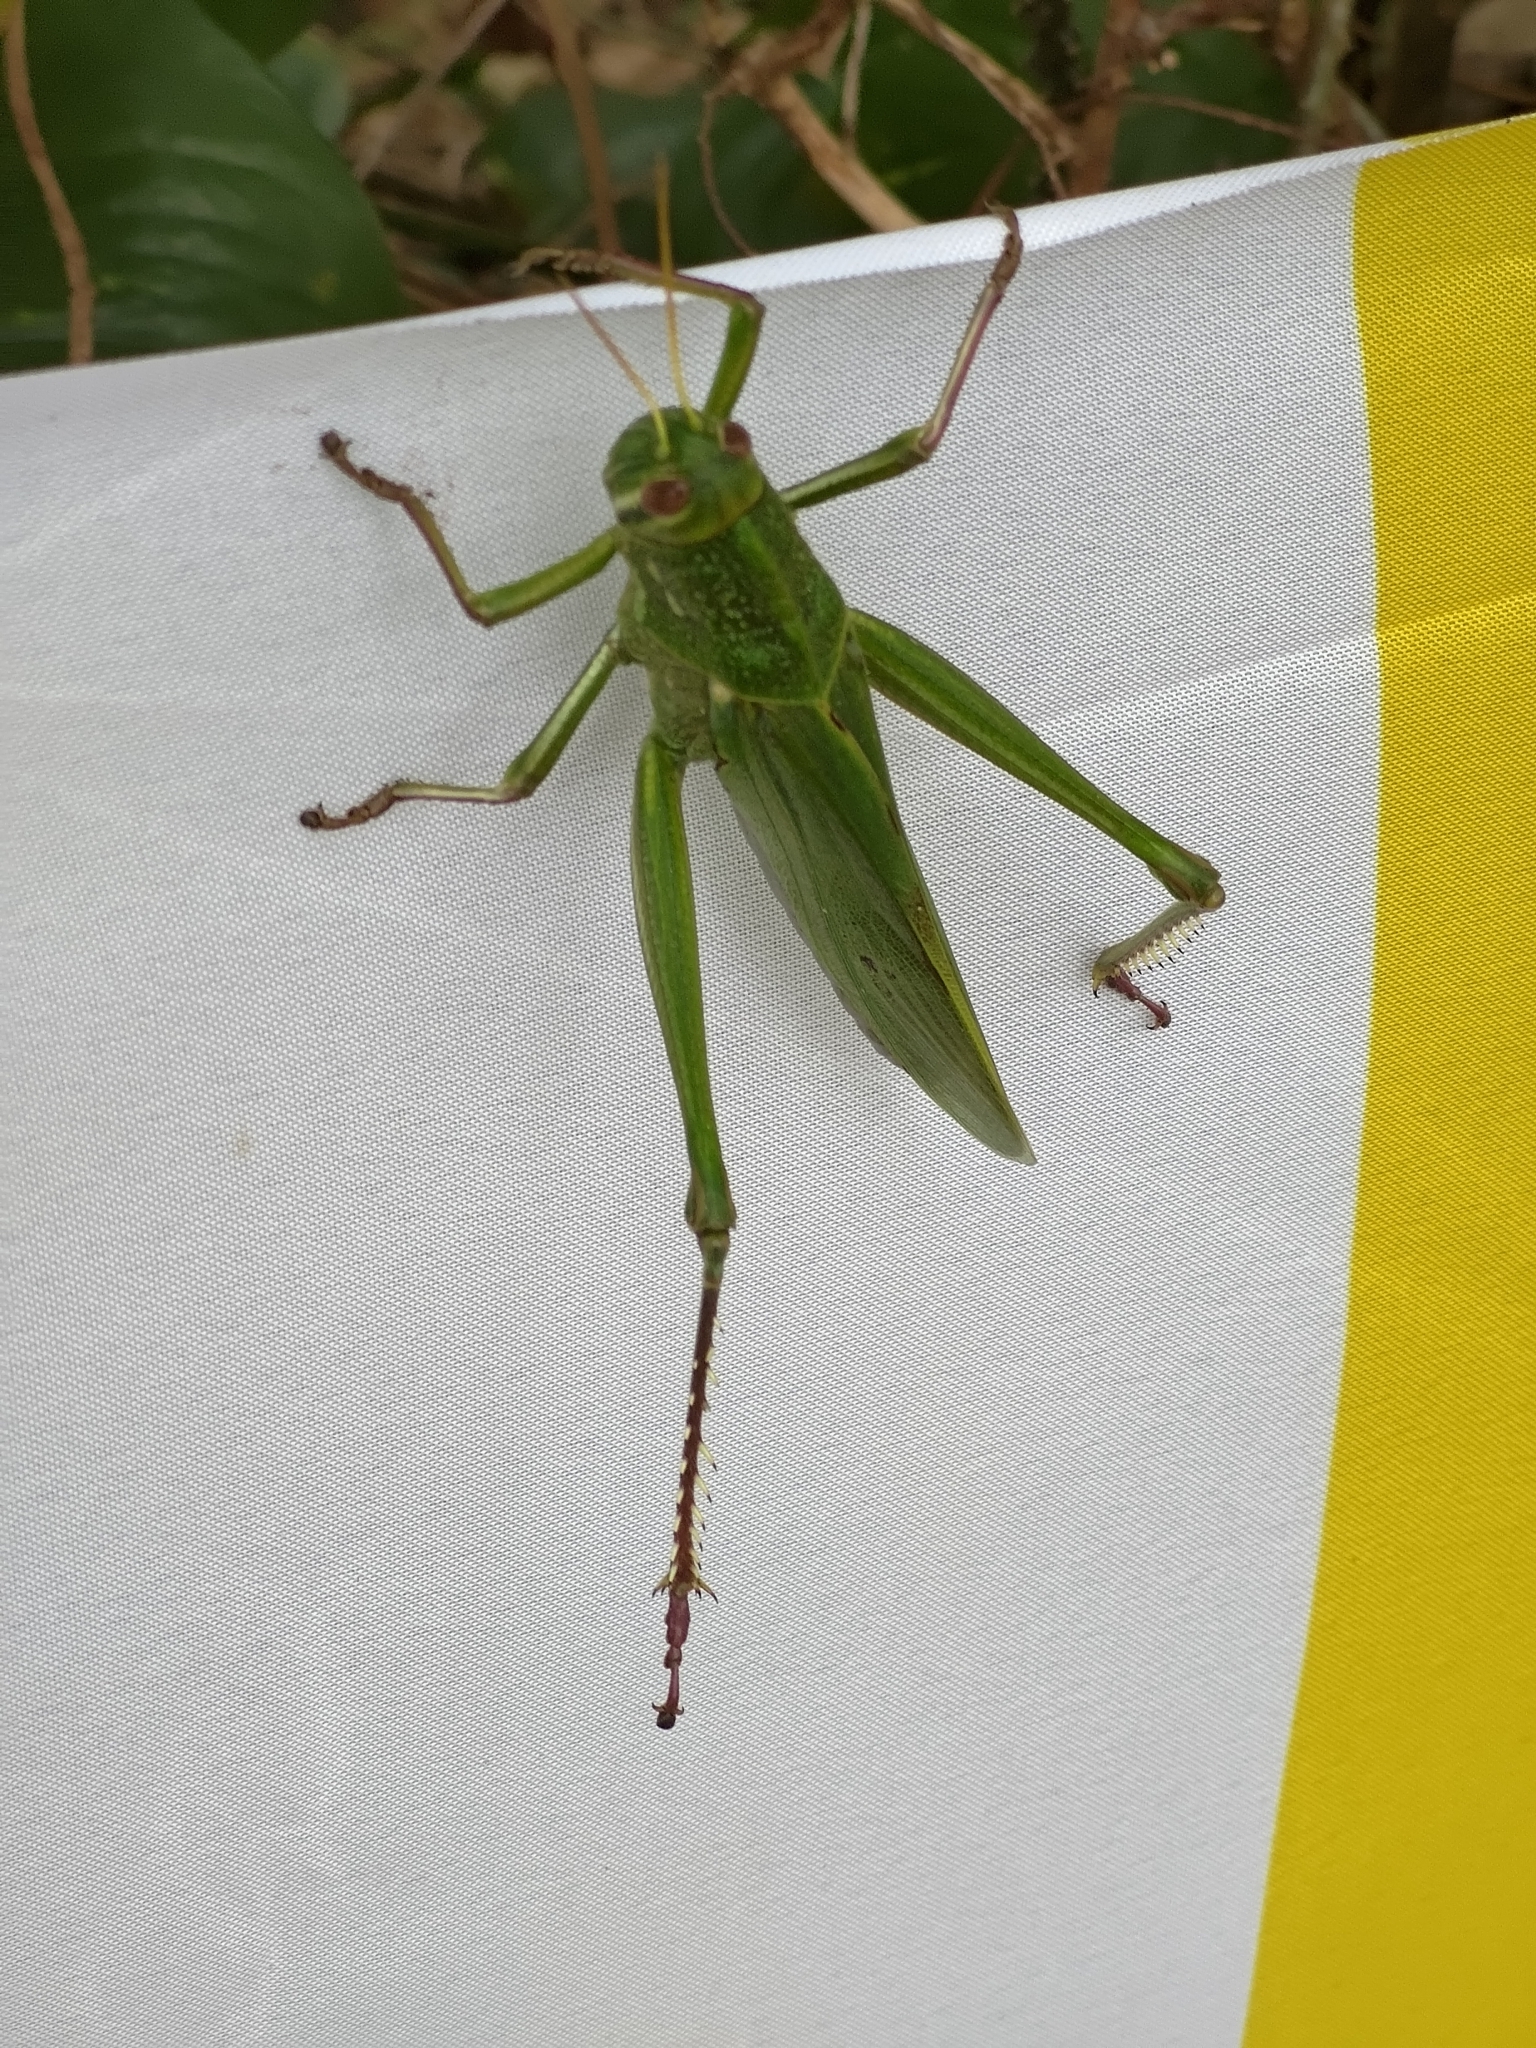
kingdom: Animalia
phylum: Arthropoda
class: Insecta
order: Orthoptera
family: Acrididae
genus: Chondracris
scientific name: Chondracris rosea
